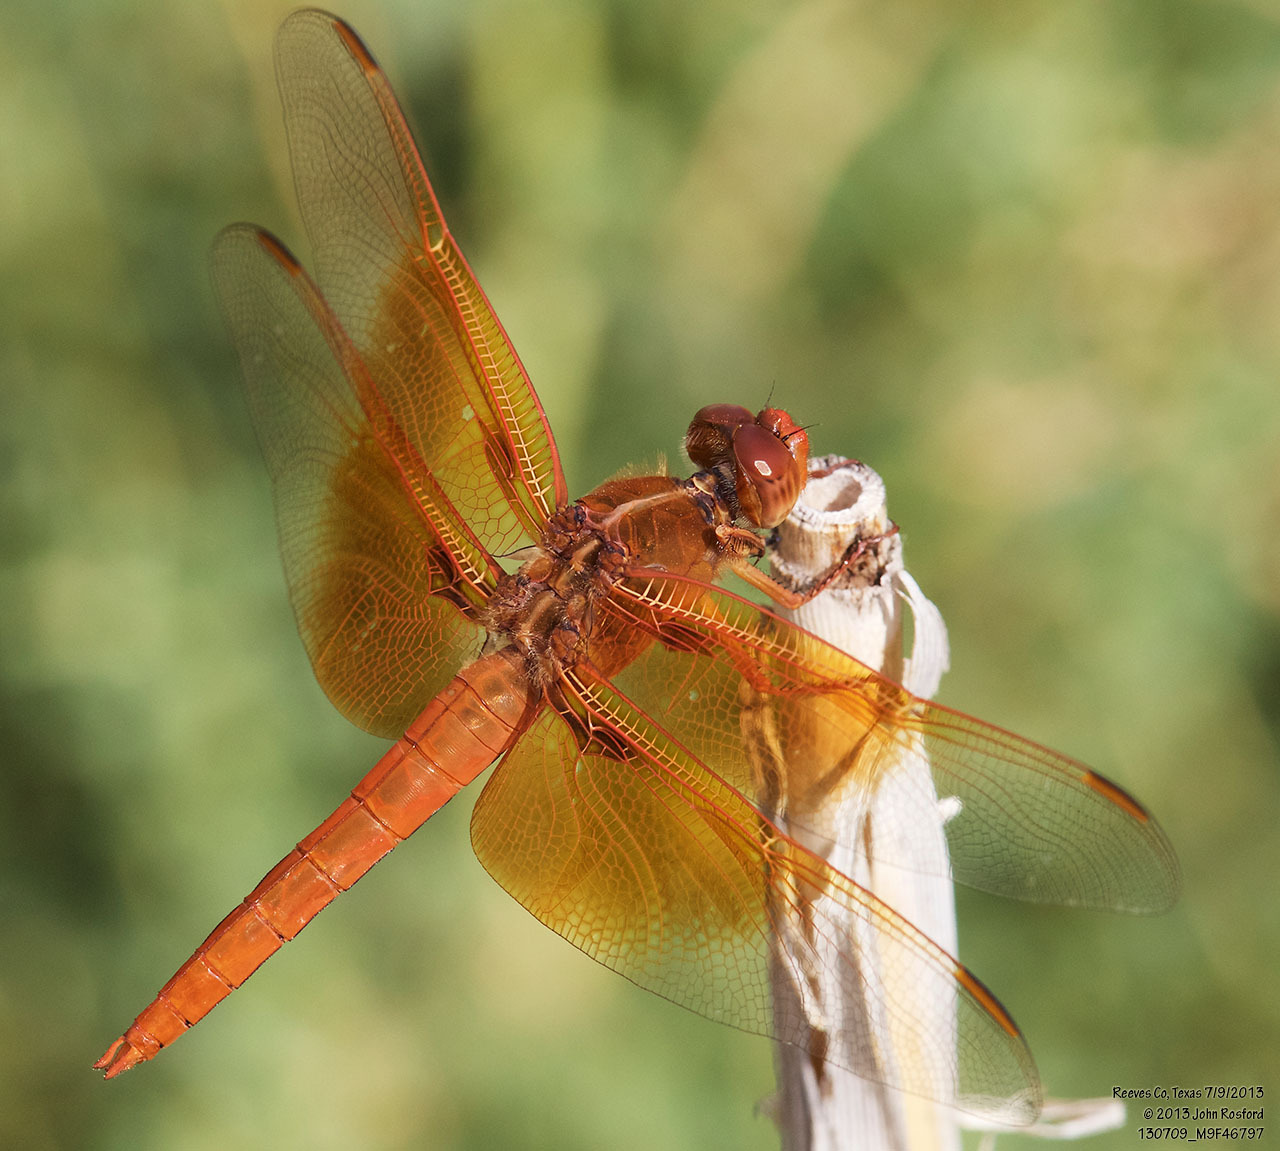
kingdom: Animalia
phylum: Arthropoda
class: Insecta
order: Odonata
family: Libellulidae
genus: Libellula
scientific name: Libellula saturata
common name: Flame skimmer
